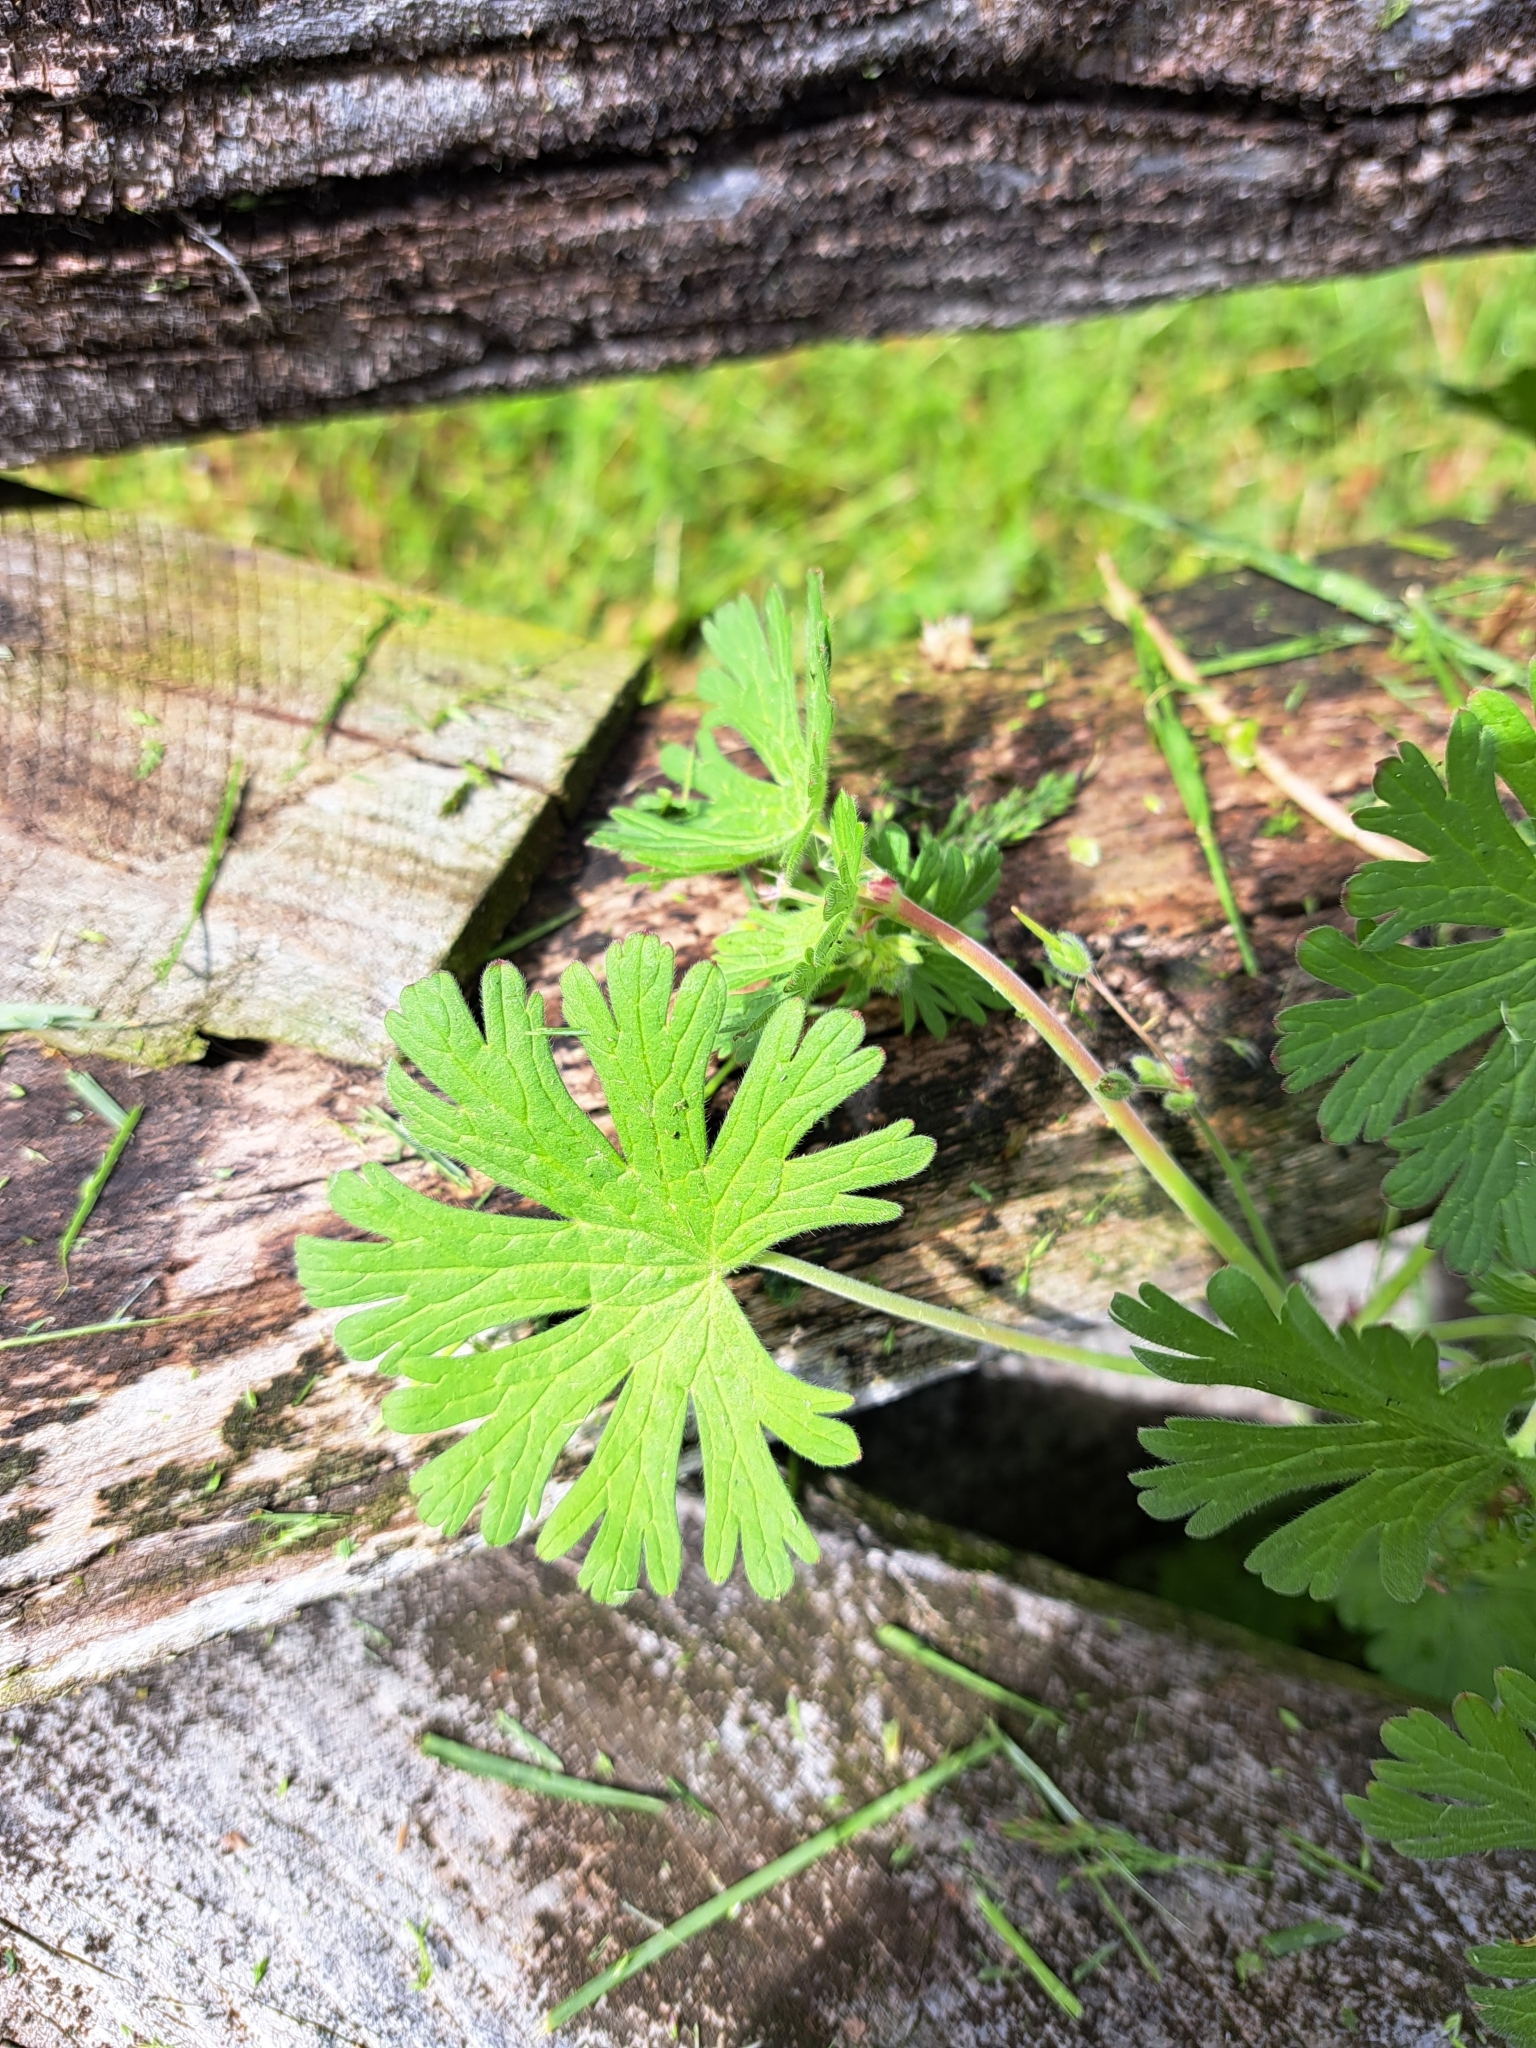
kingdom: Plantae
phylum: Tracheophyta
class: Magnoliopsida
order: Geraniales
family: Geraniaceae
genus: Geranium
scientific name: Geranium pusillum
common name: Small geranium
